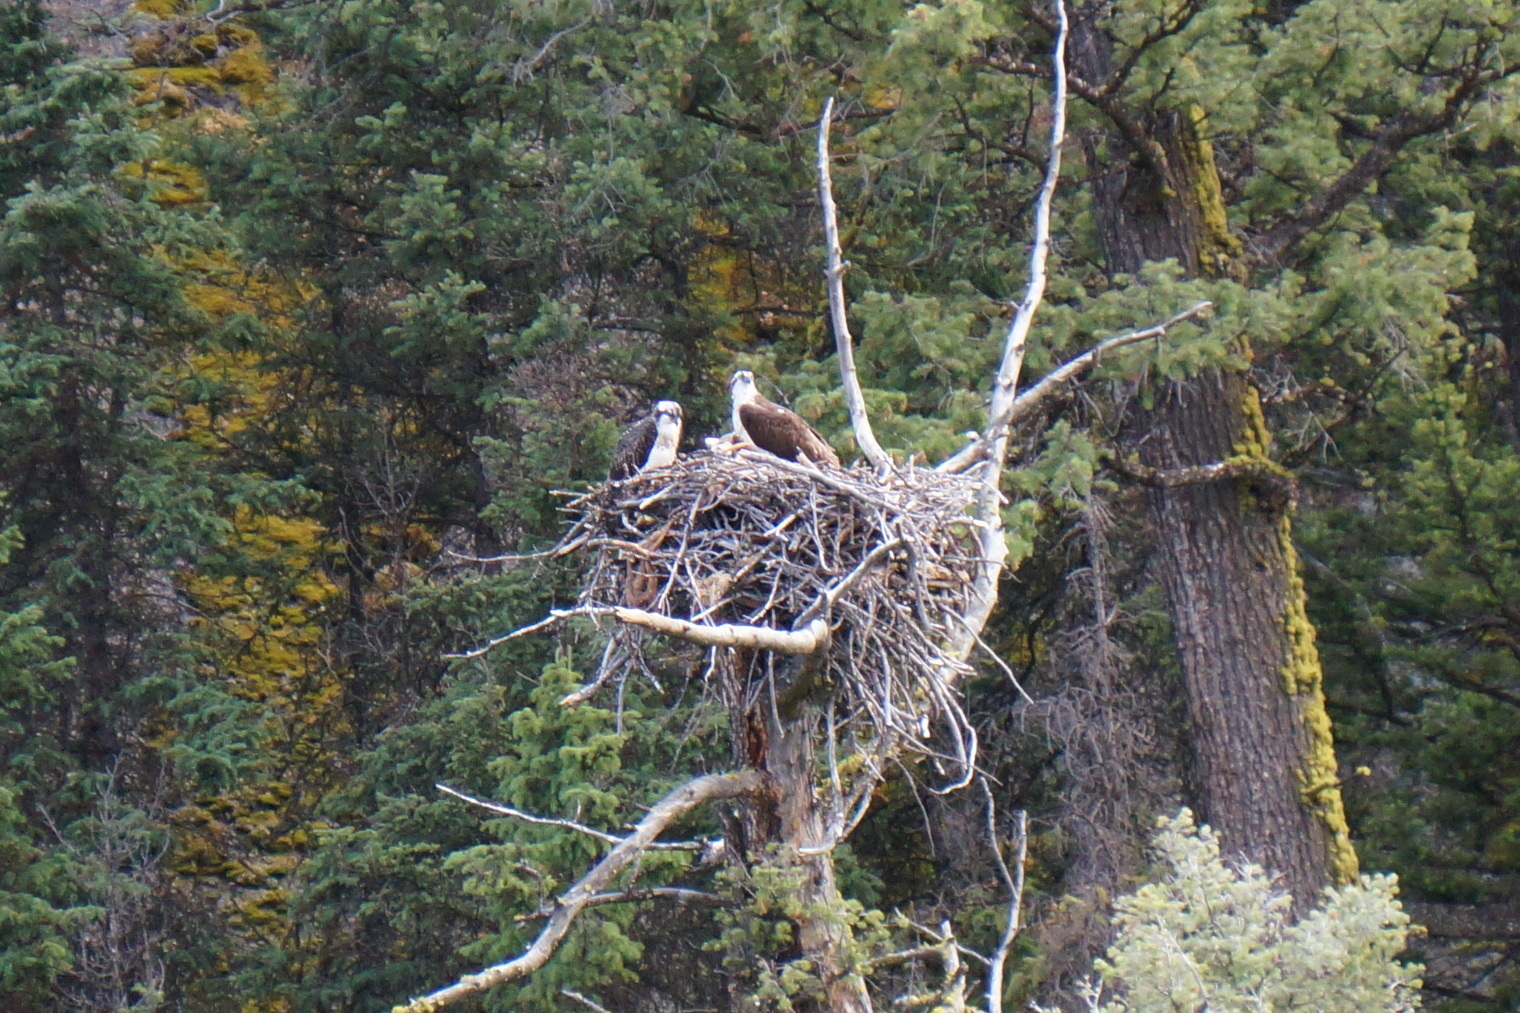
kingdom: Animalia
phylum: Chordata
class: Aves
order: Accipitriformes
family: Pandionidae
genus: Pandion
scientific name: Pandion haliaetus
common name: Osprey
